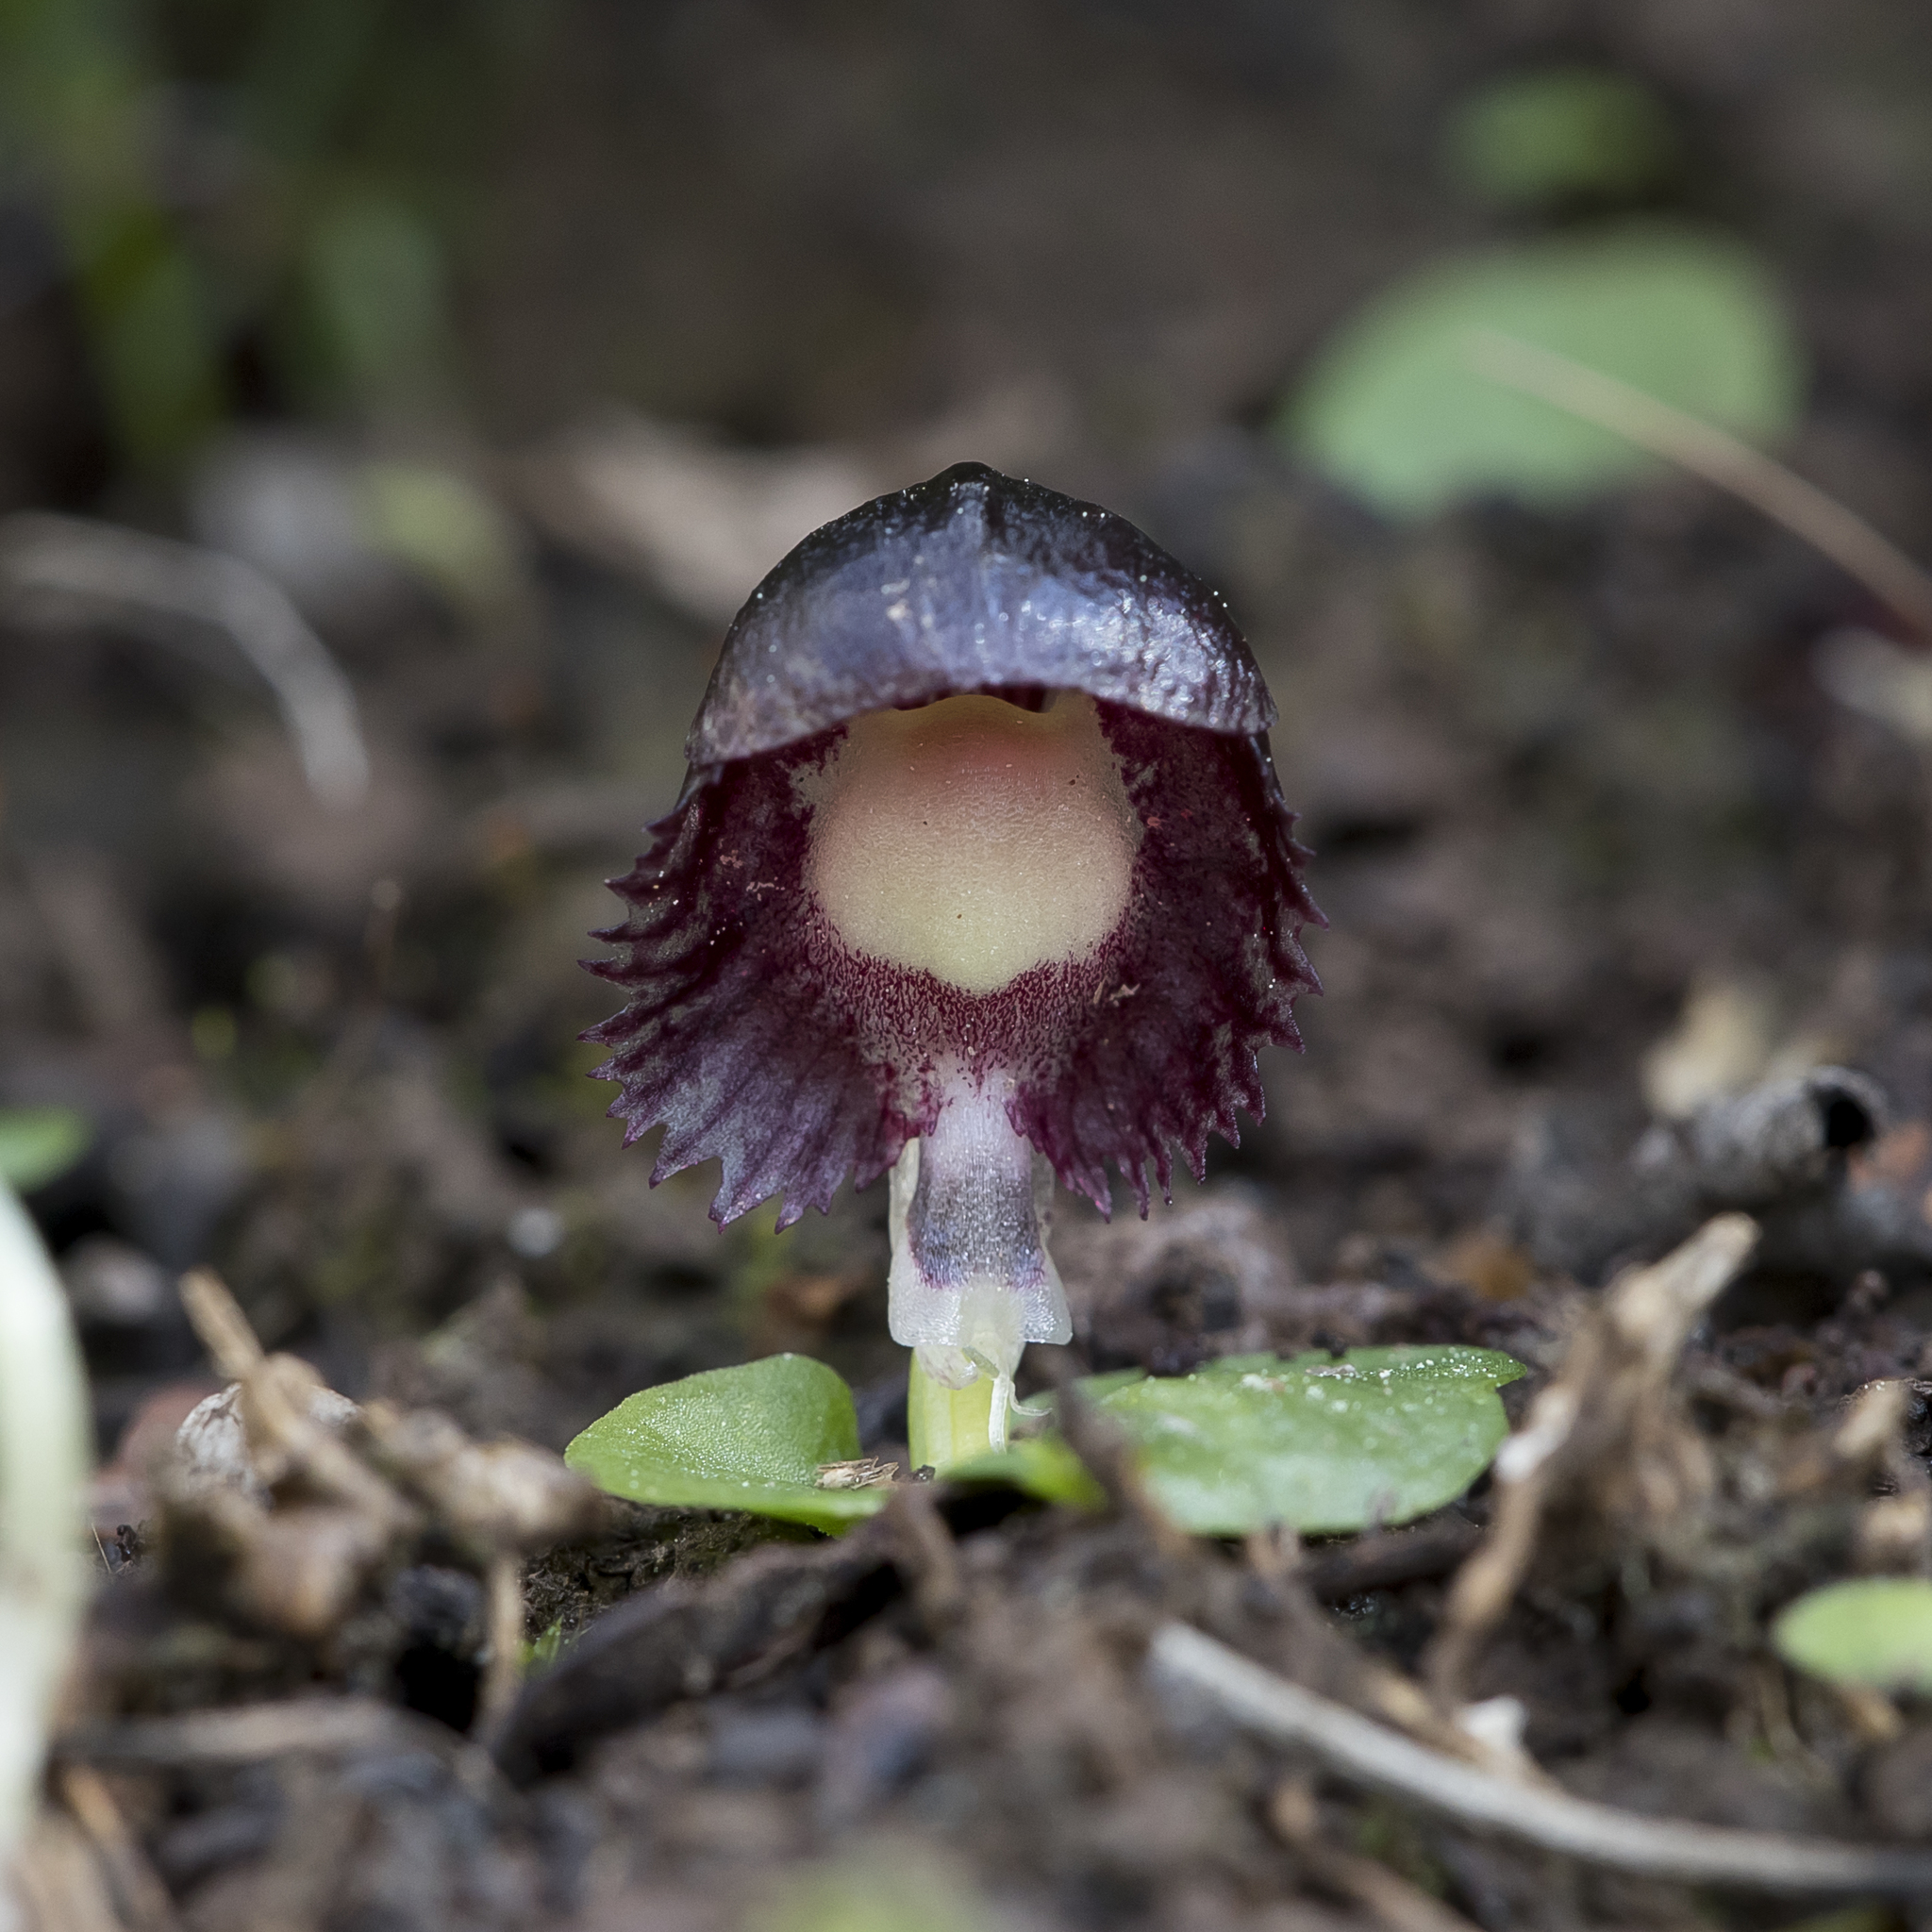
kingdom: Plantae
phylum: Tracheophyta
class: Liliopsida
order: Asparagales
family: Orchidaceae
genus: Corybas
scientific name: Corybas diemenicus
